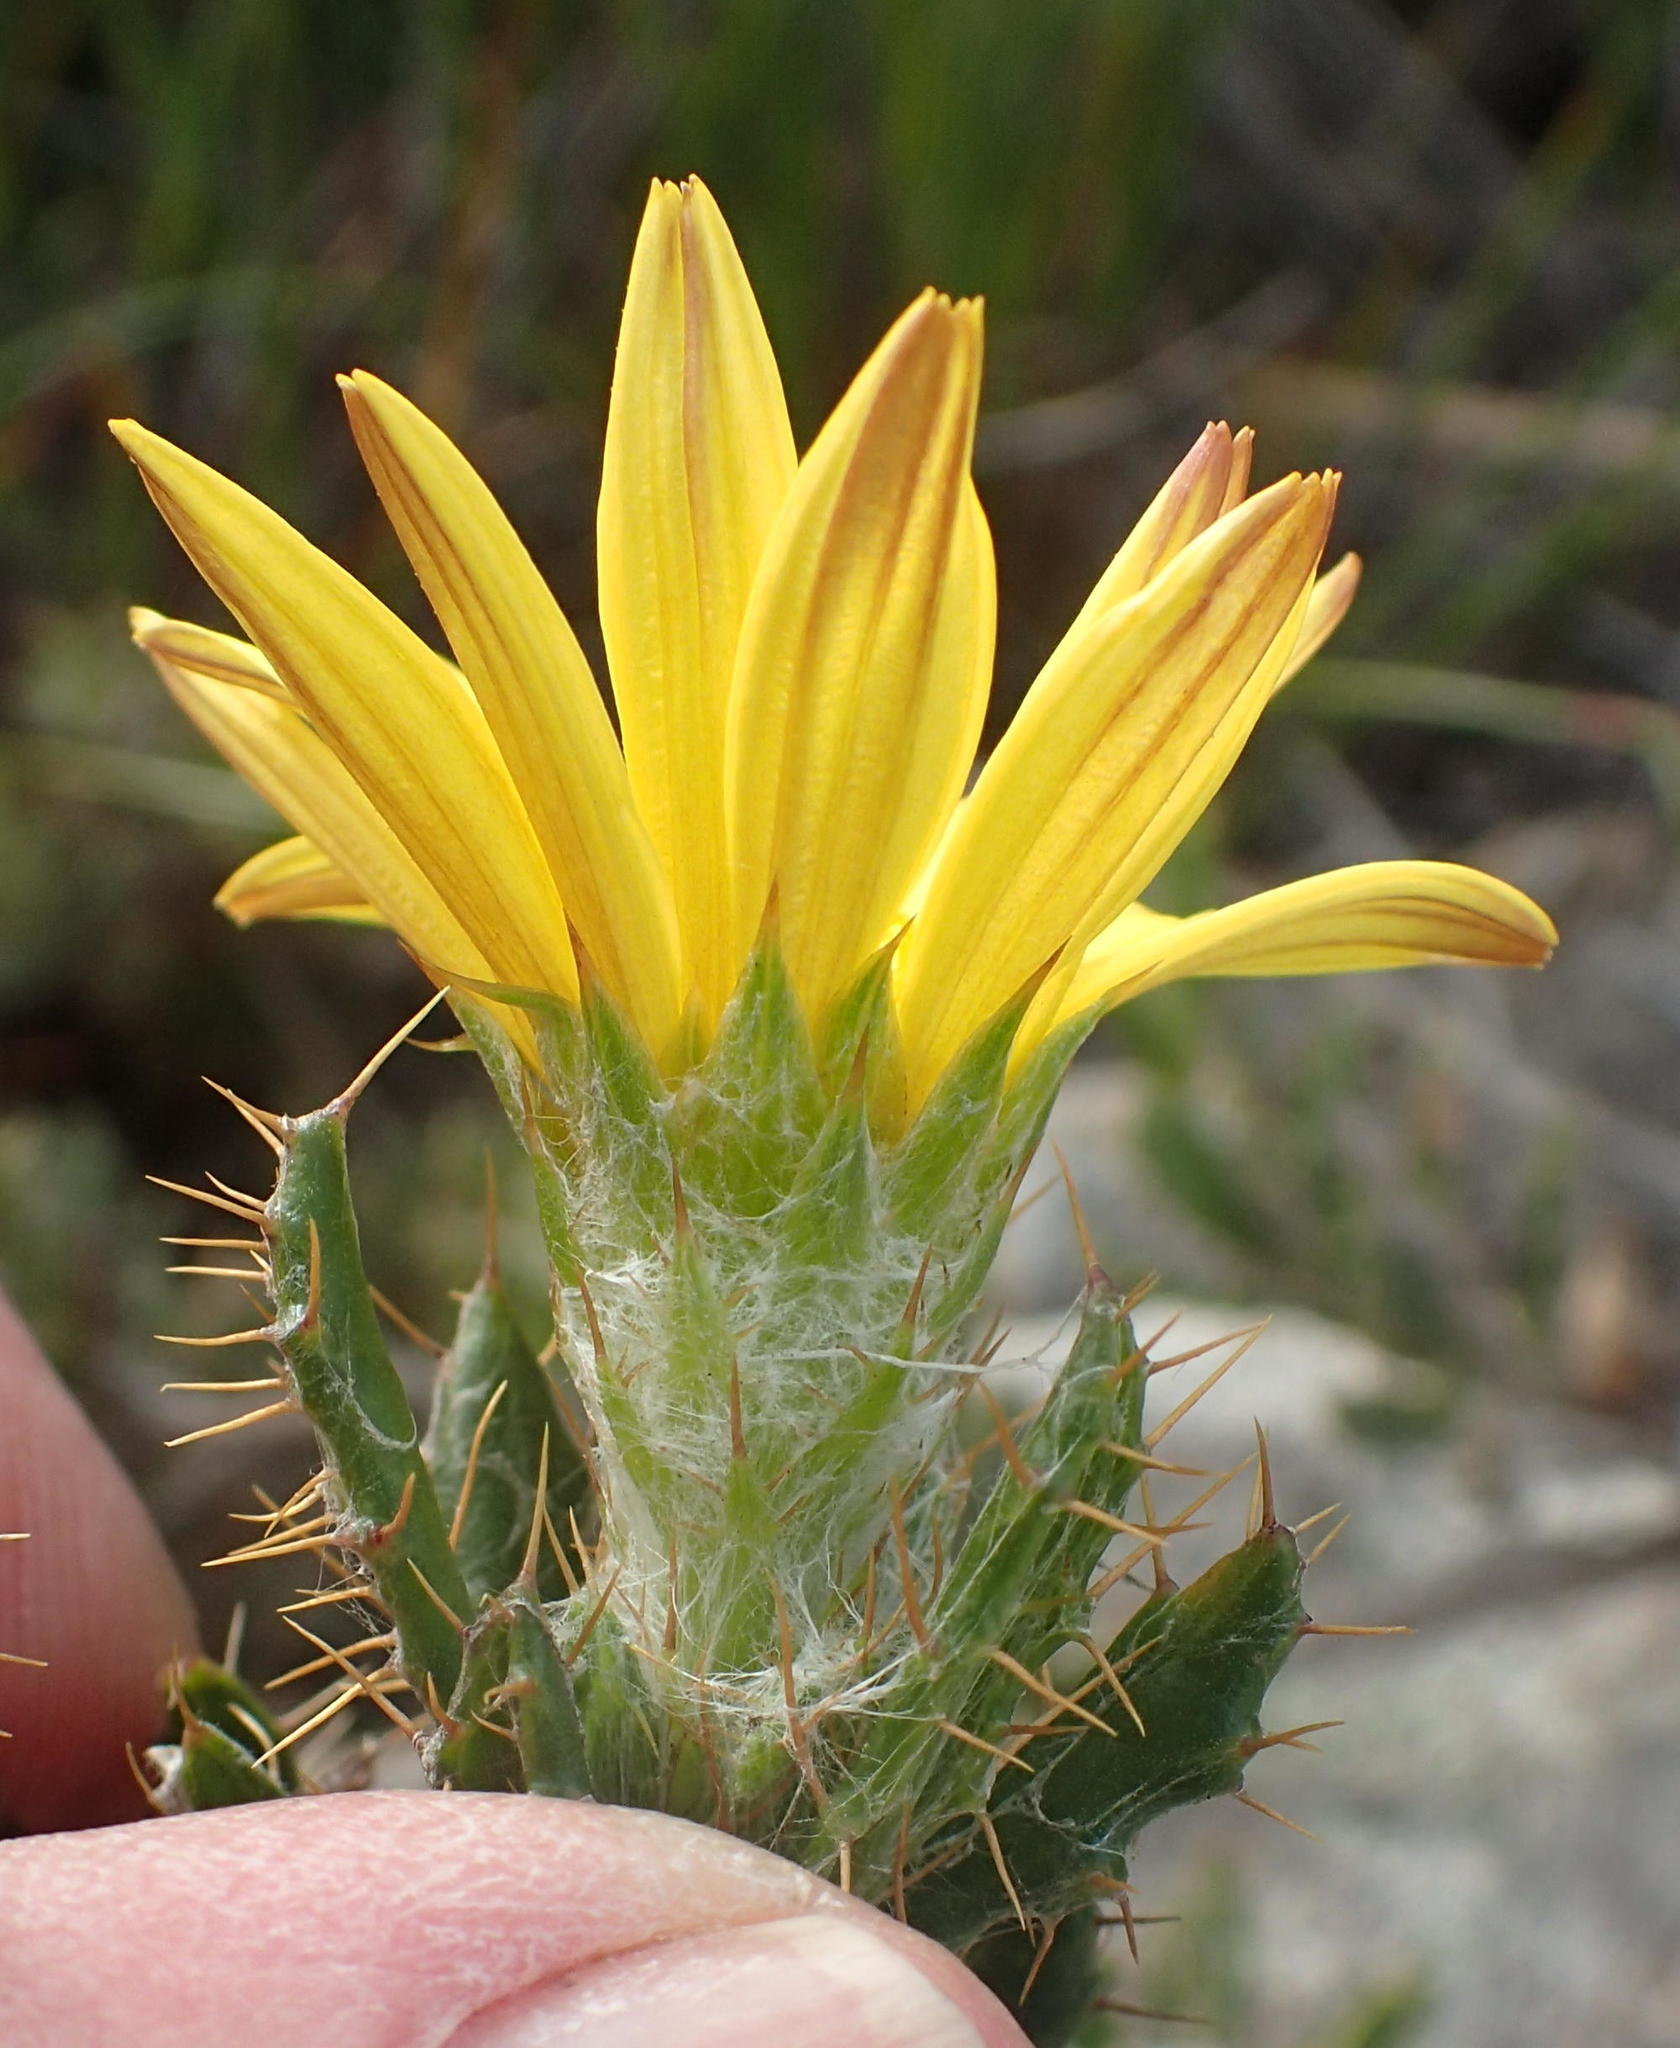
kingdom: Plantae
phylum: Tracheophyta
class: Magnoliopsida
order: Asterales
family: Asteraceae
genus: Cullumia
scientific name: Cullumia aculeata
